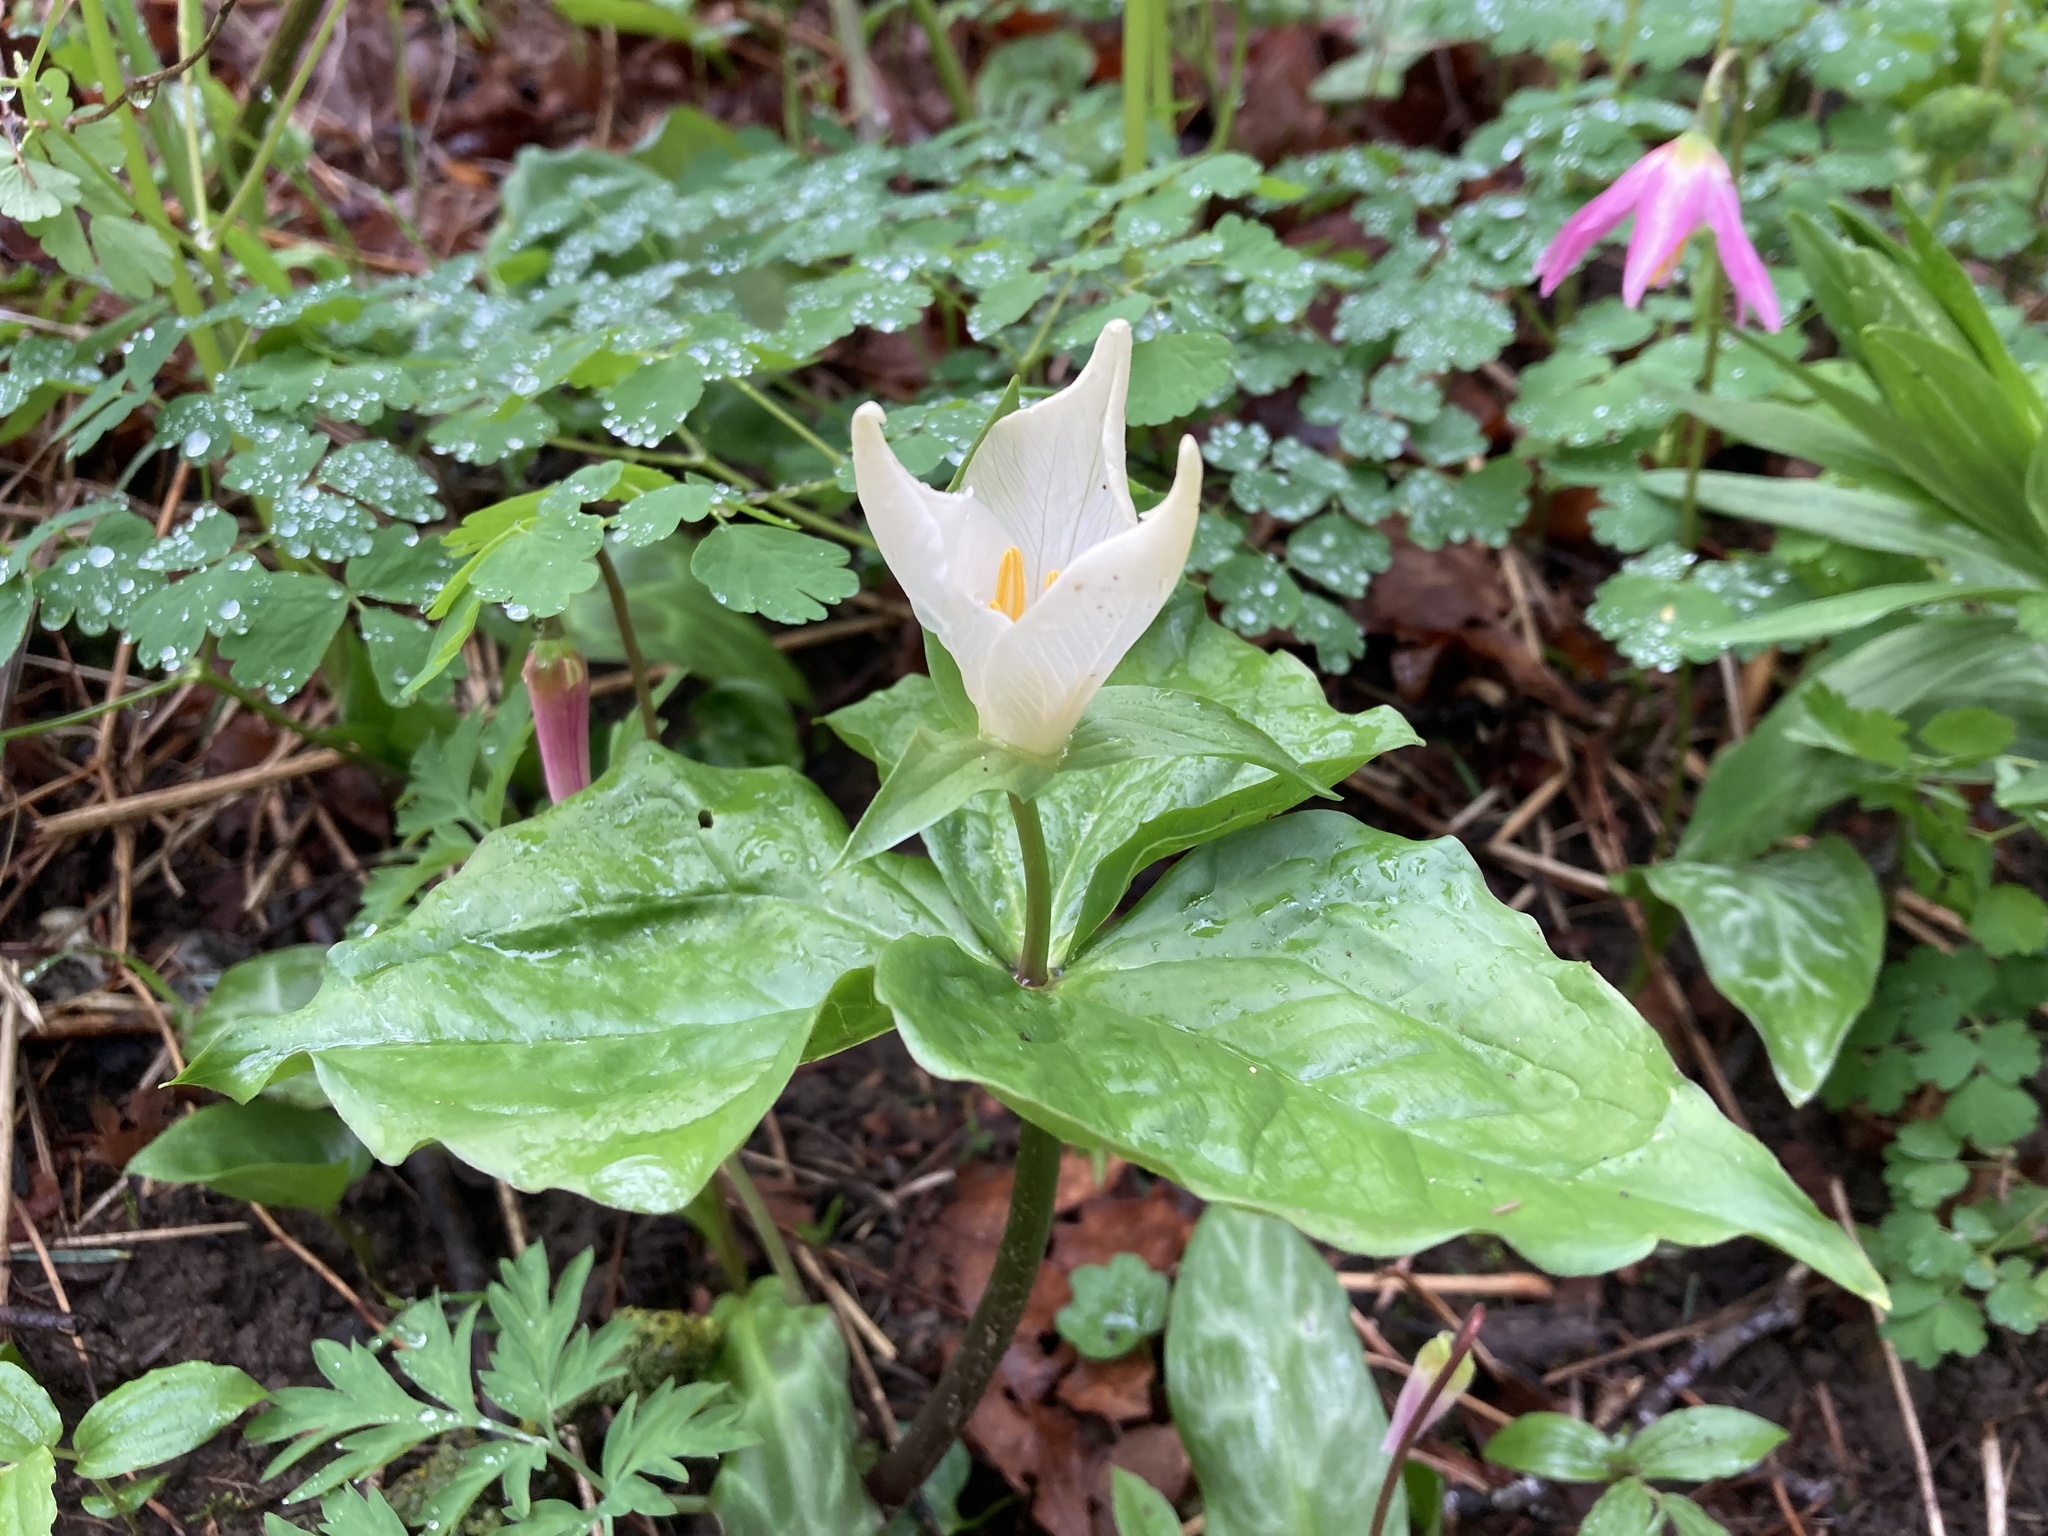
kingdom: Plantae
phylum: Tracheophyta
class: Liliopsida
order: Liliales
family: Melanthiaceae
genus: Trillium
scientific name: Trillium ovatum
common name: Pacific trillium
